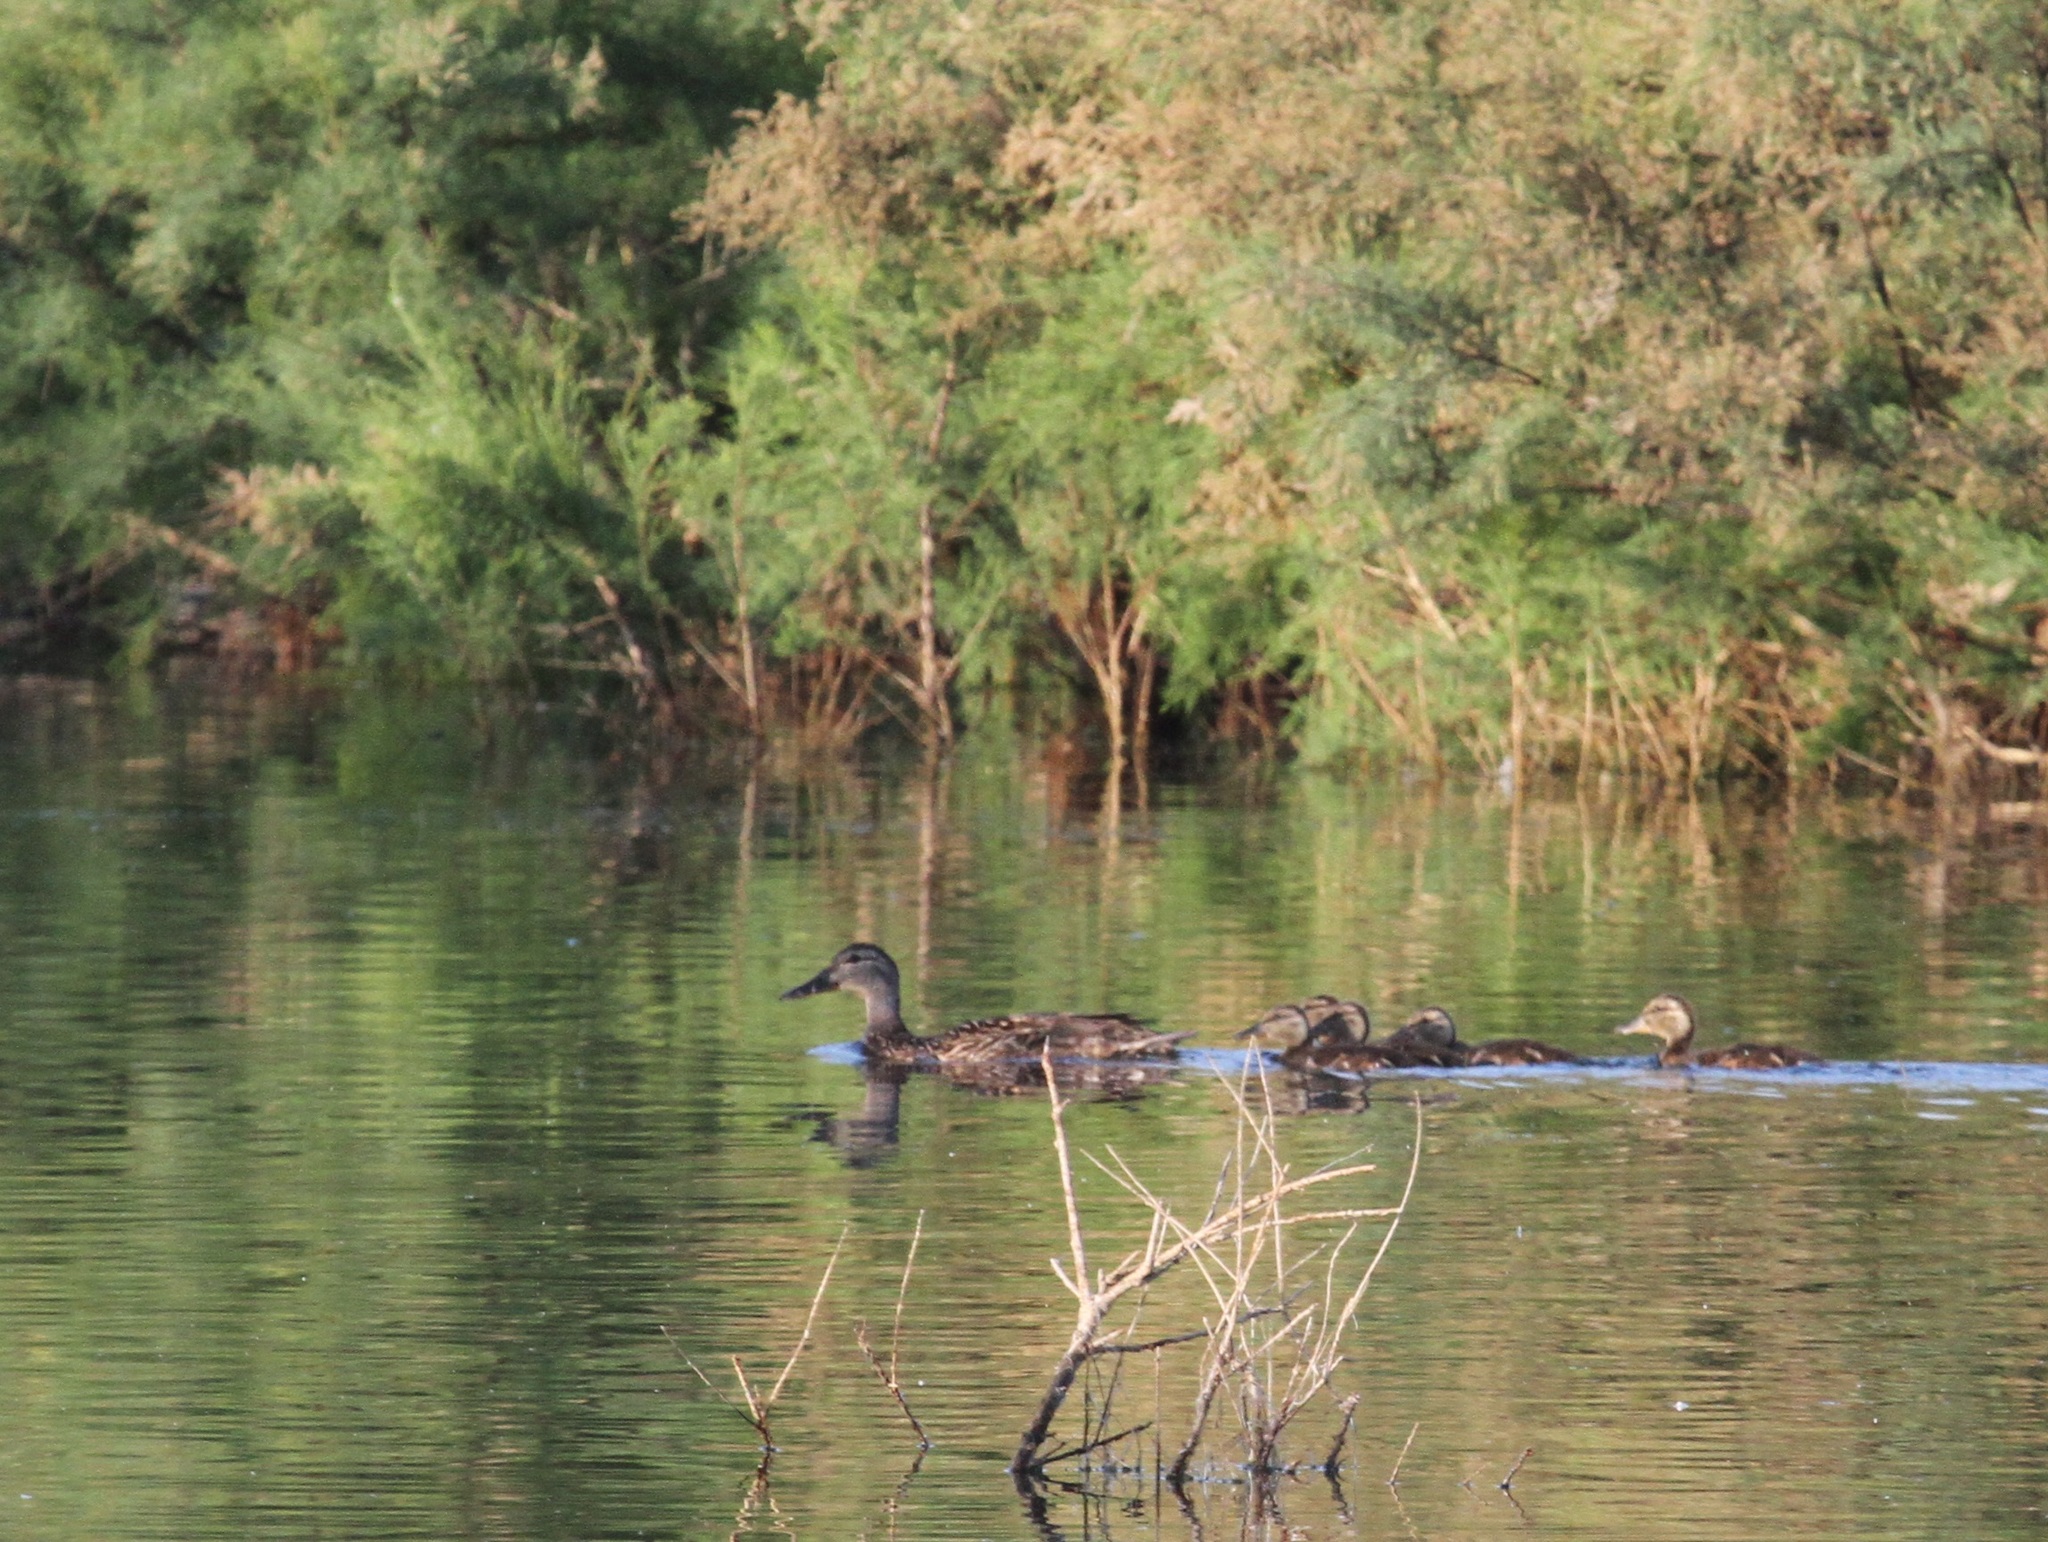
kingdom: Animalia
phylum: Chordata
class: Aves
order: Anseriformes
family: Anatidae
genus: Anas
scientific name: Anas platyrhynchos
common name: Mallard
